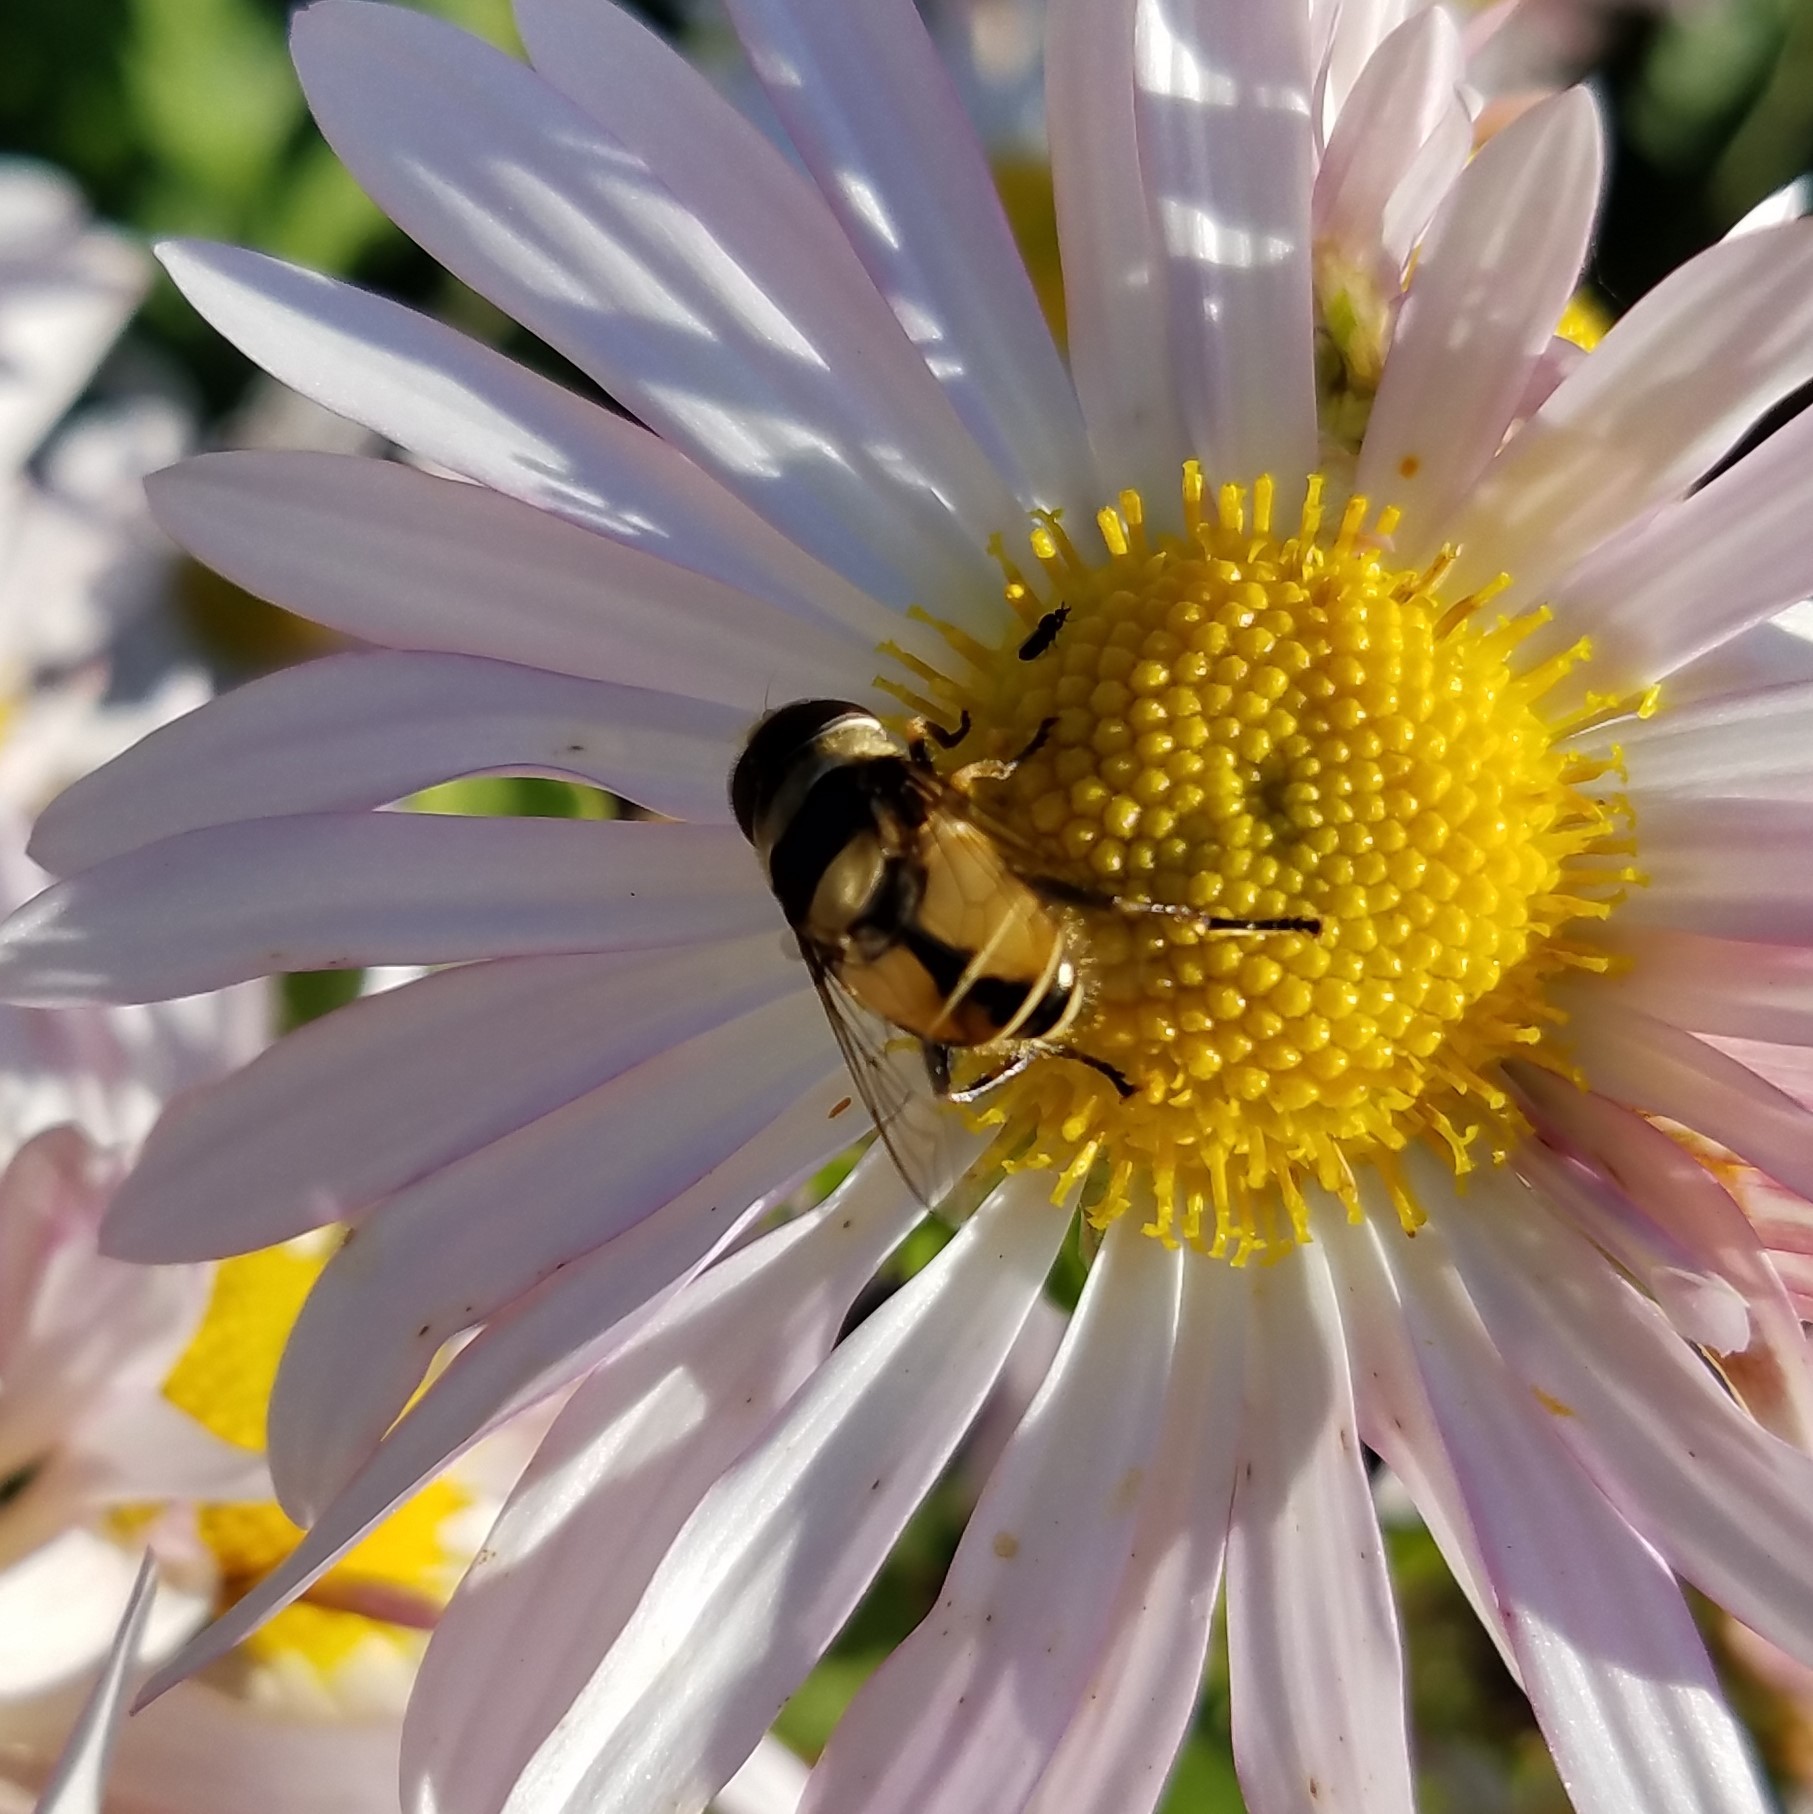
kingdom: Animalia
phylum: Arthropoda
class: Insecta
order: Diptera
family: Syrphidae
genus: Palpada
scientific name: Palpada pusilla
